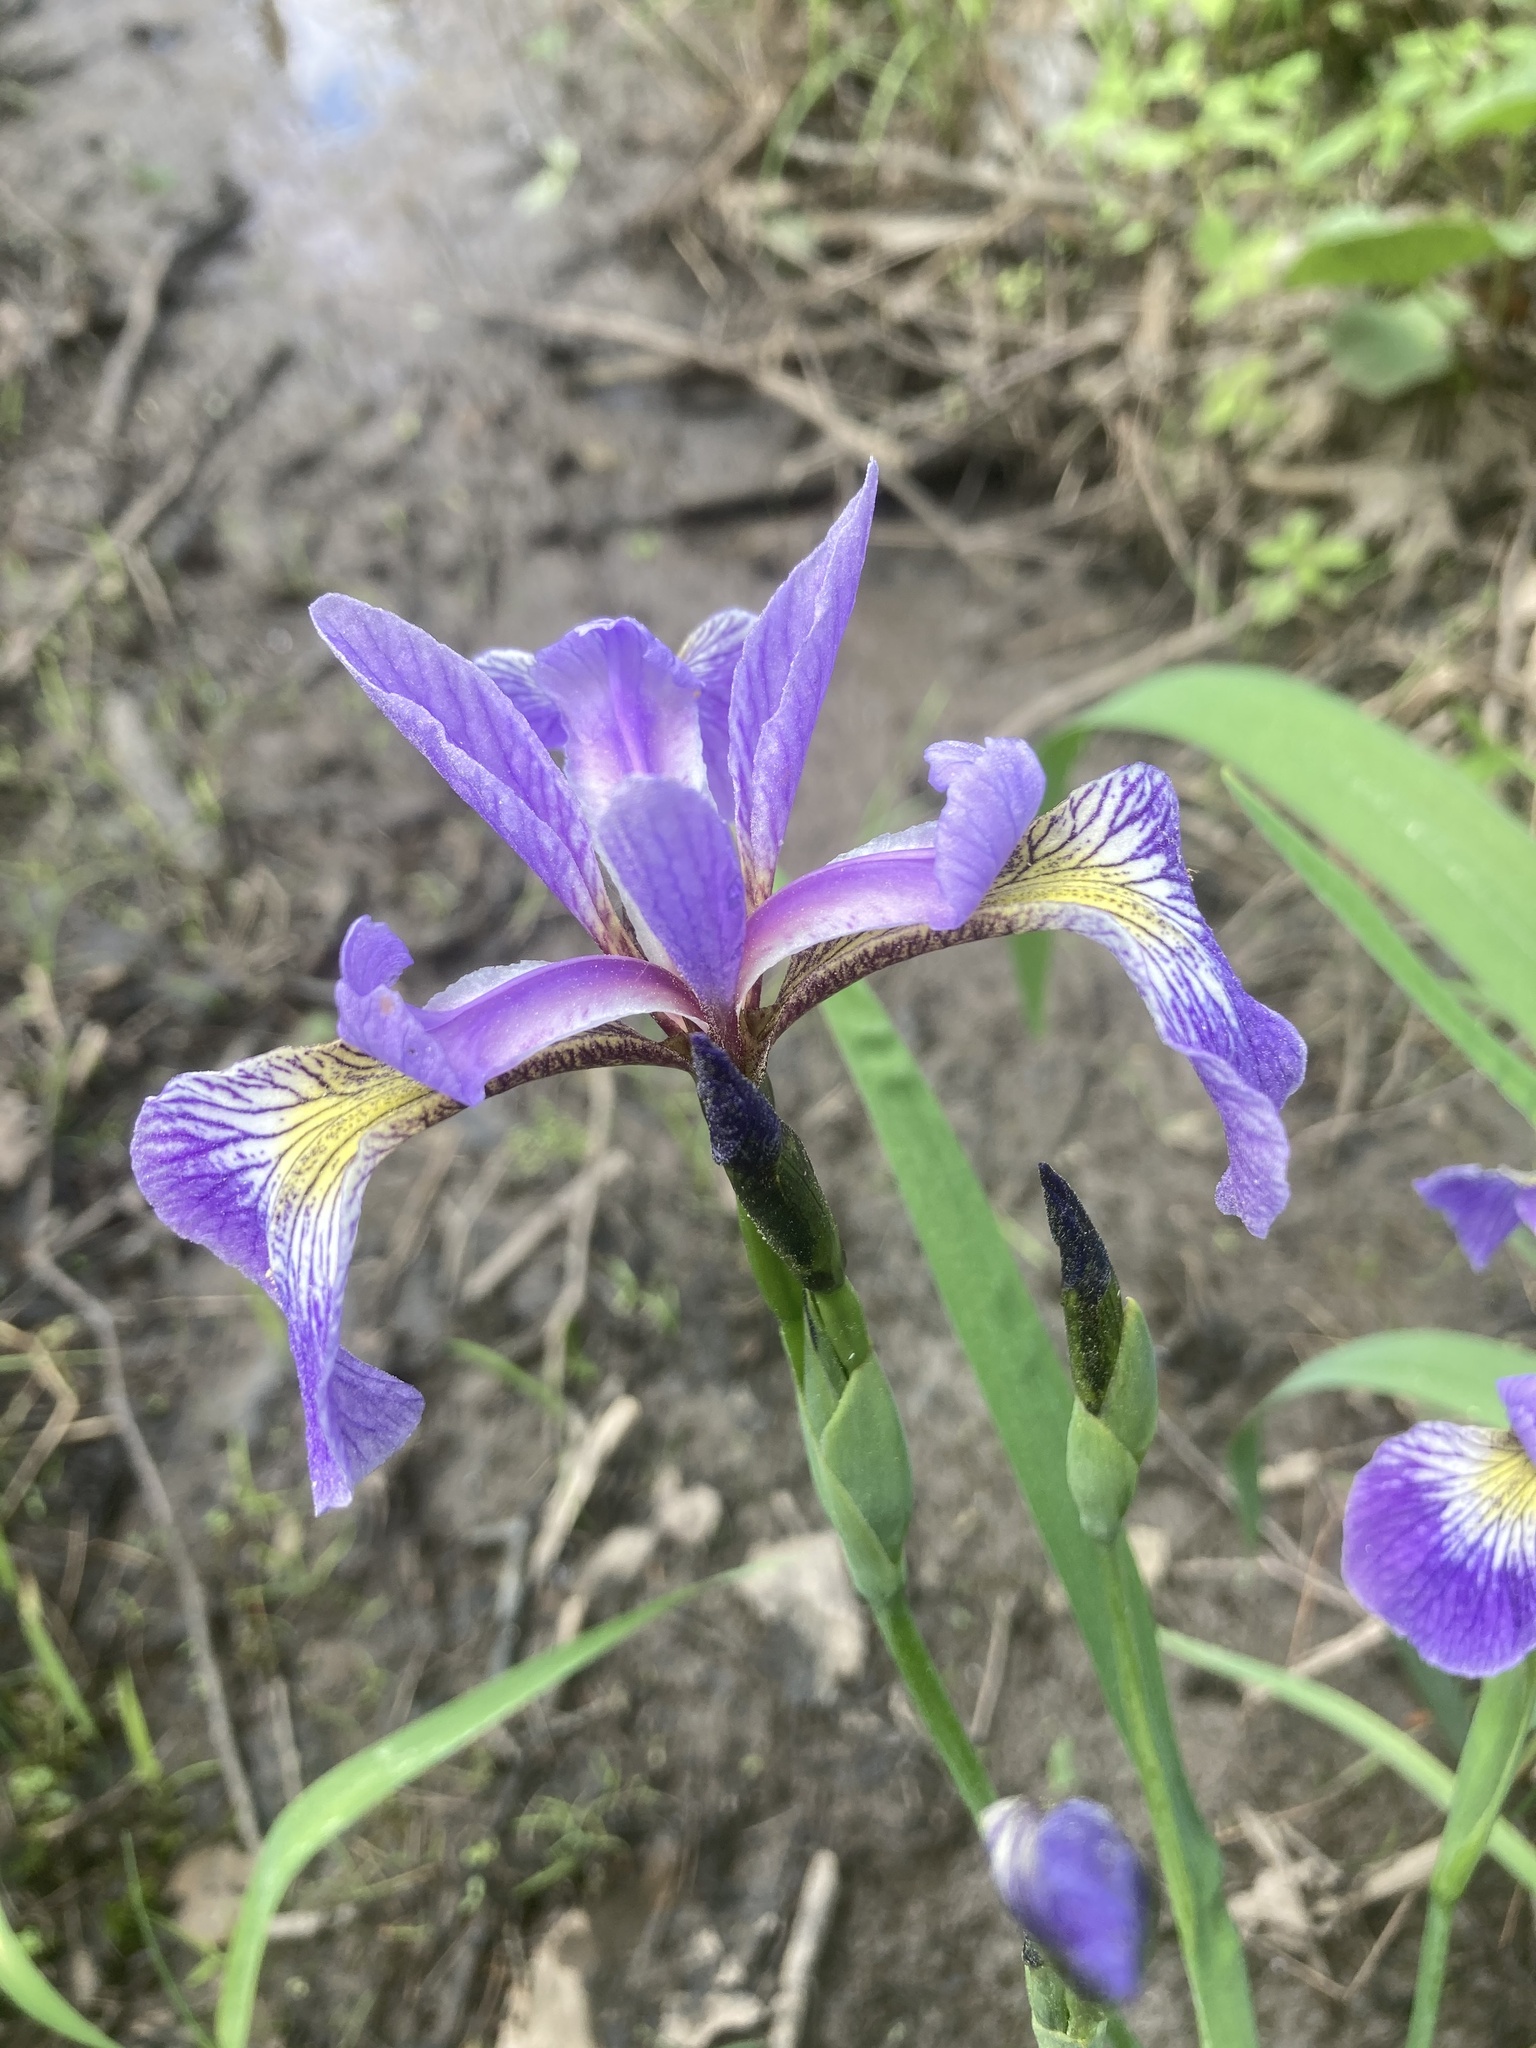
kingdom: Plantae
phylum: Tracheophyta
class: Liliopsida
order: Asparagales
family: Iridaceae
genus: Iris
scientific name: Iris versicolor
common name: Purple iris
